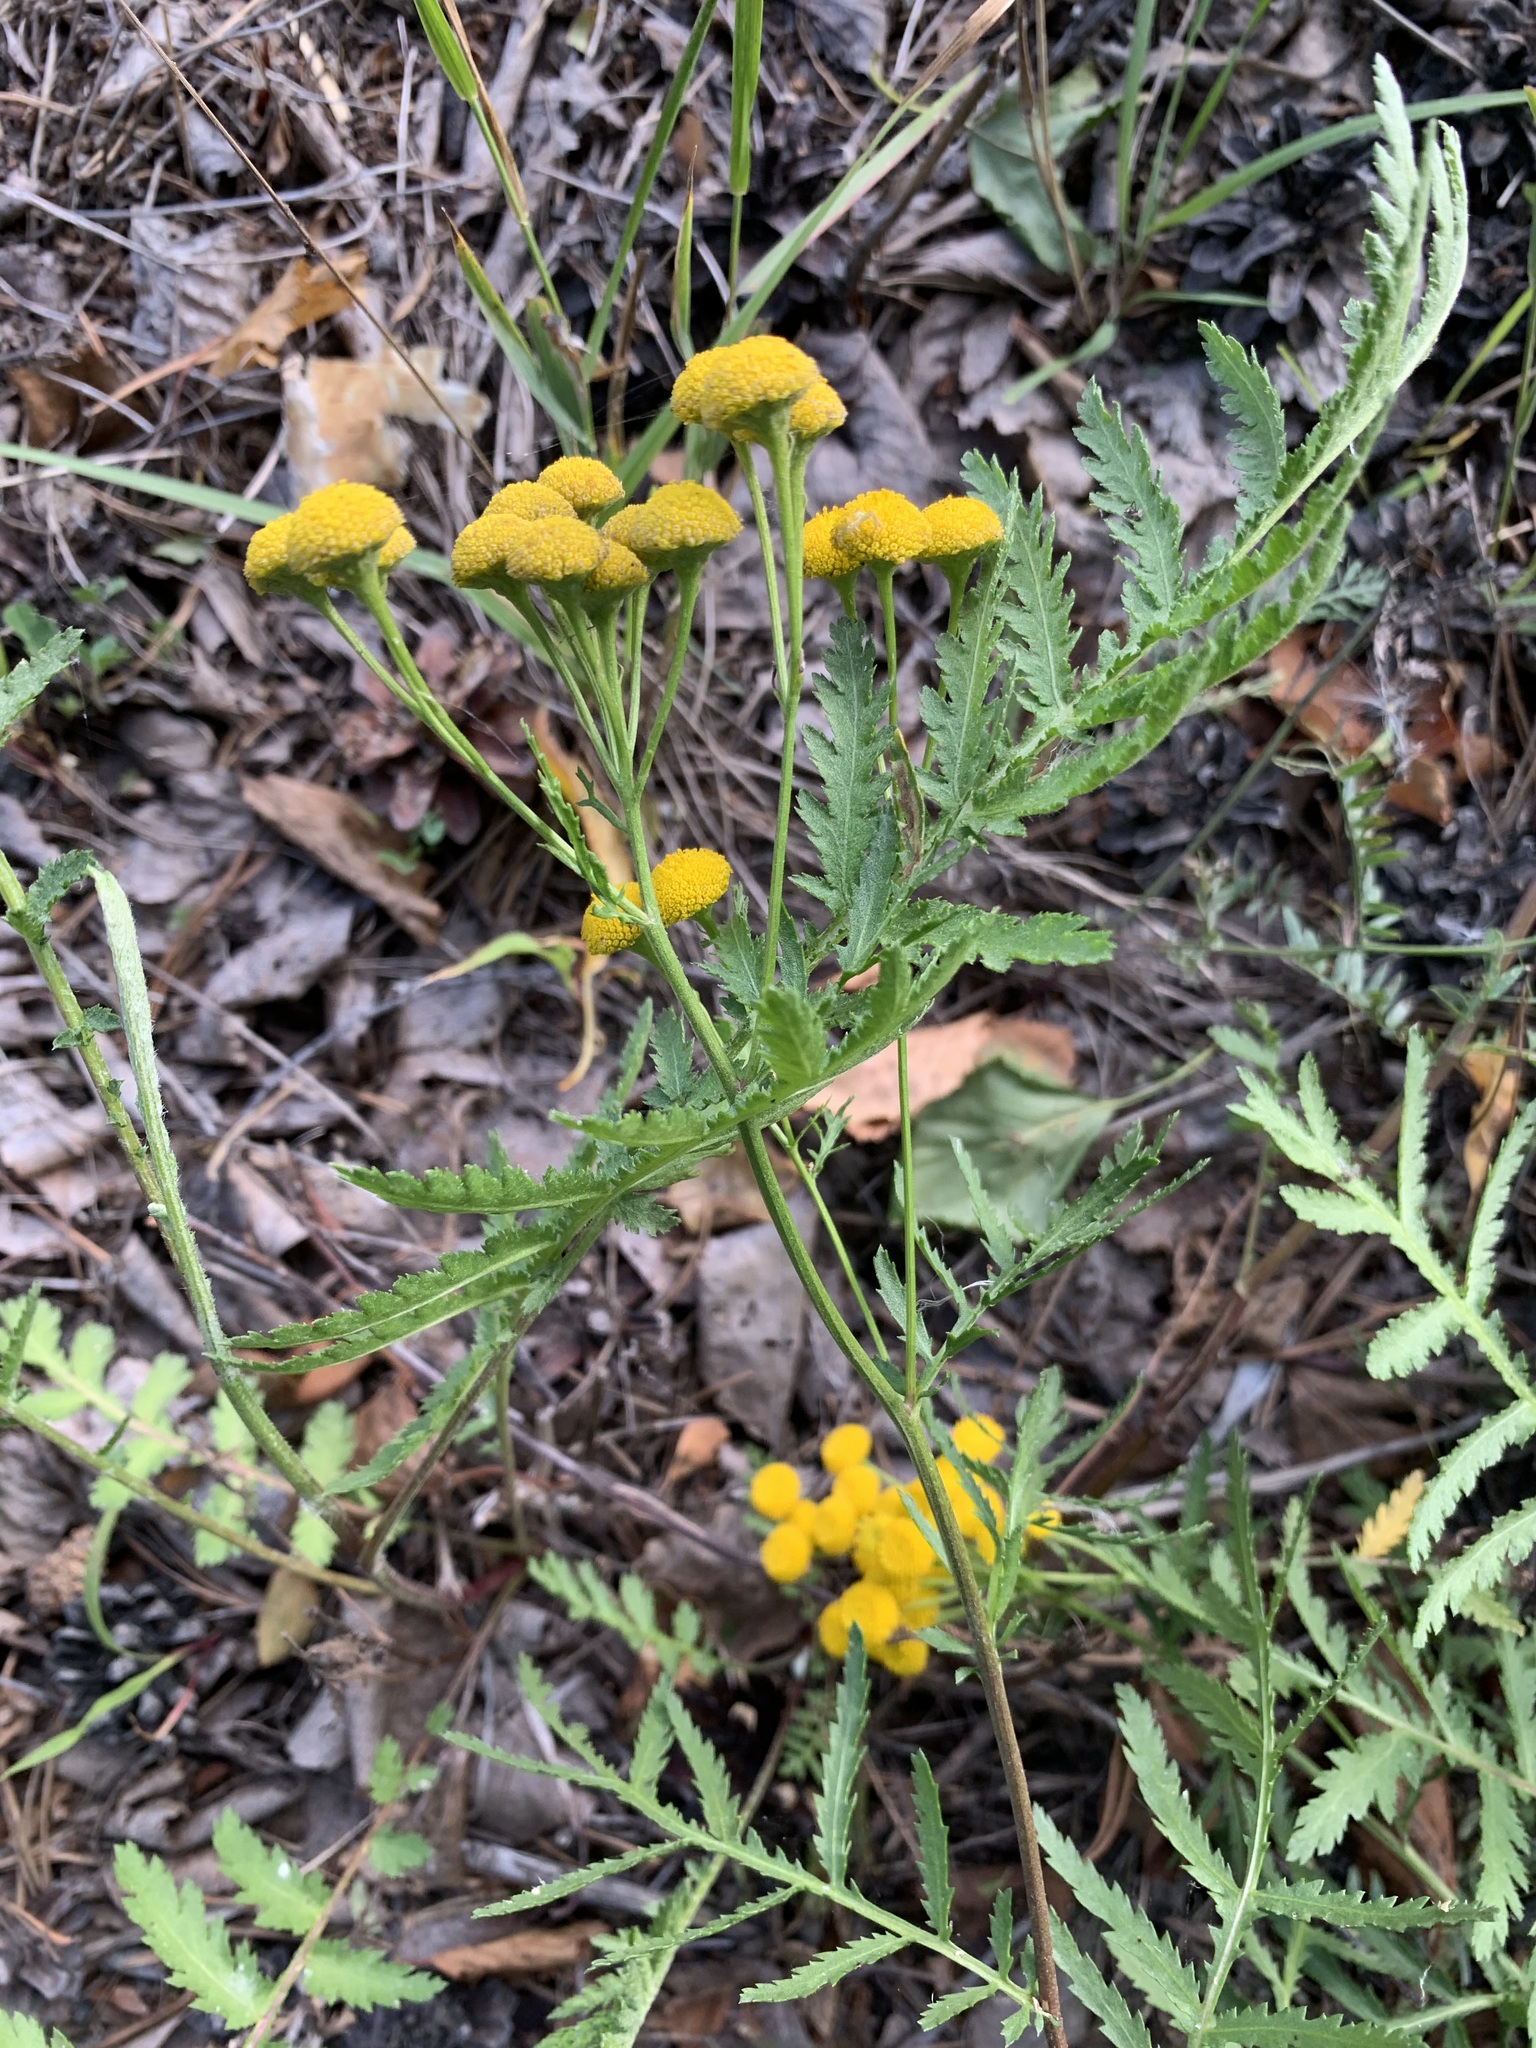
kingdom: Plantae
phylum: Tracheophyta
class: Magnoliopsida
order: Asterales
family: Asteraceae
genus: Tanacetum
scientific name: Tanacetum vulgare
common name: Common tansy
